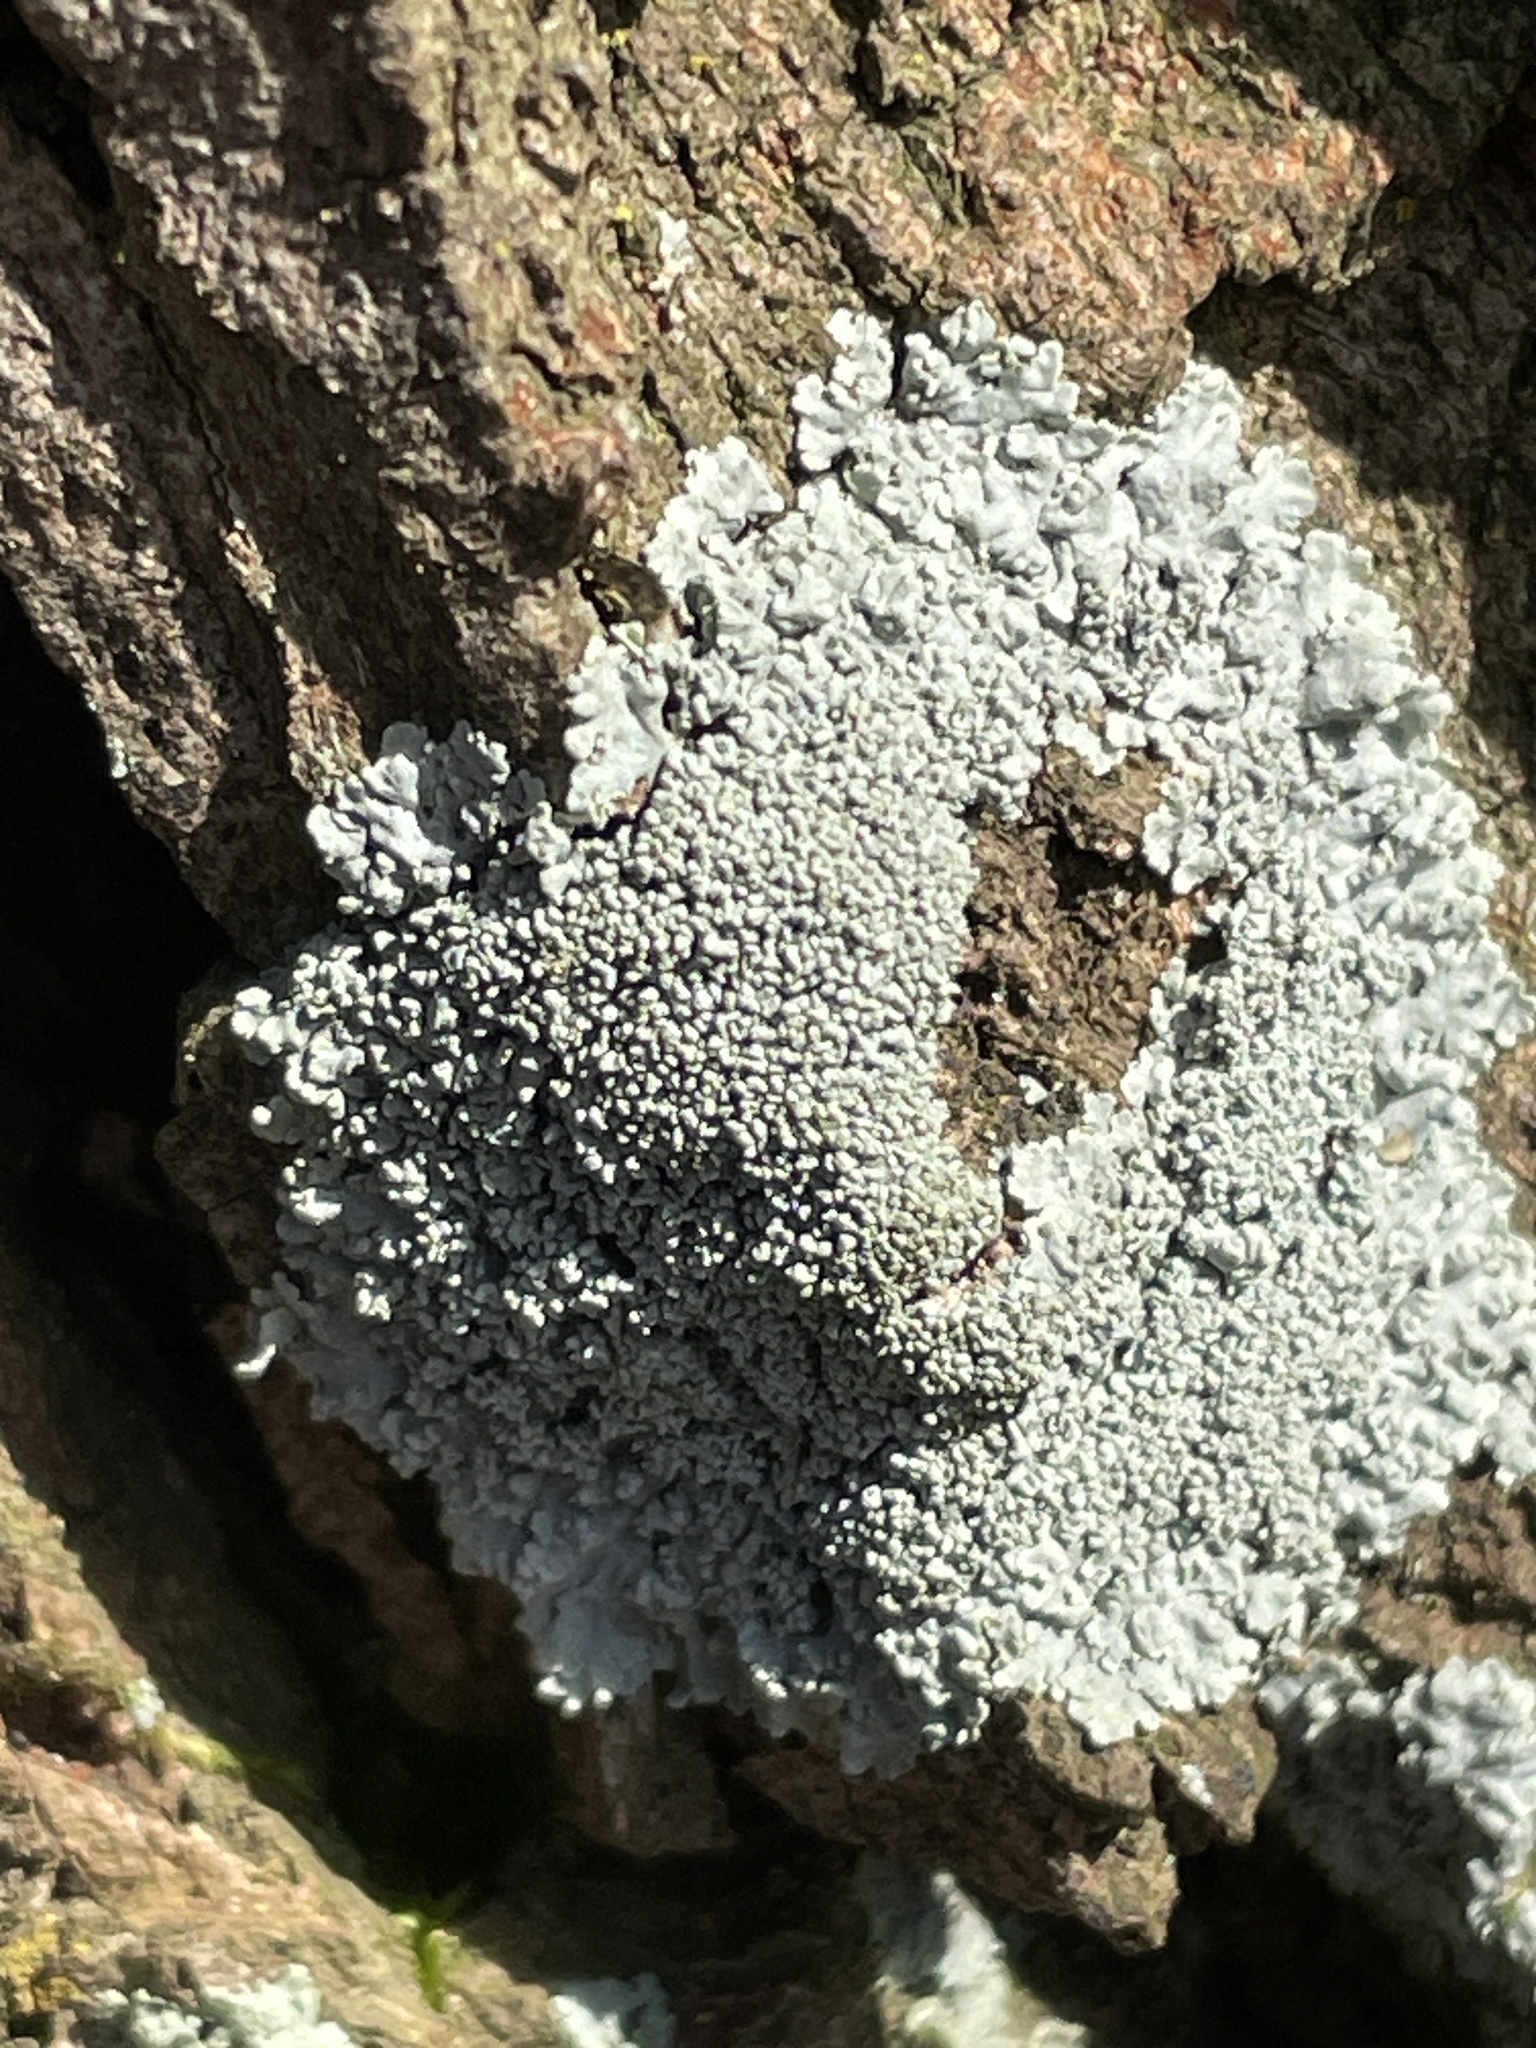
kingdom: Fungi
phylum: Ascomycota
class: Lecanoromycetes
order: Caliciales
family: Physciaceae
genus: Physcia
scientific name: Physcia clementei
